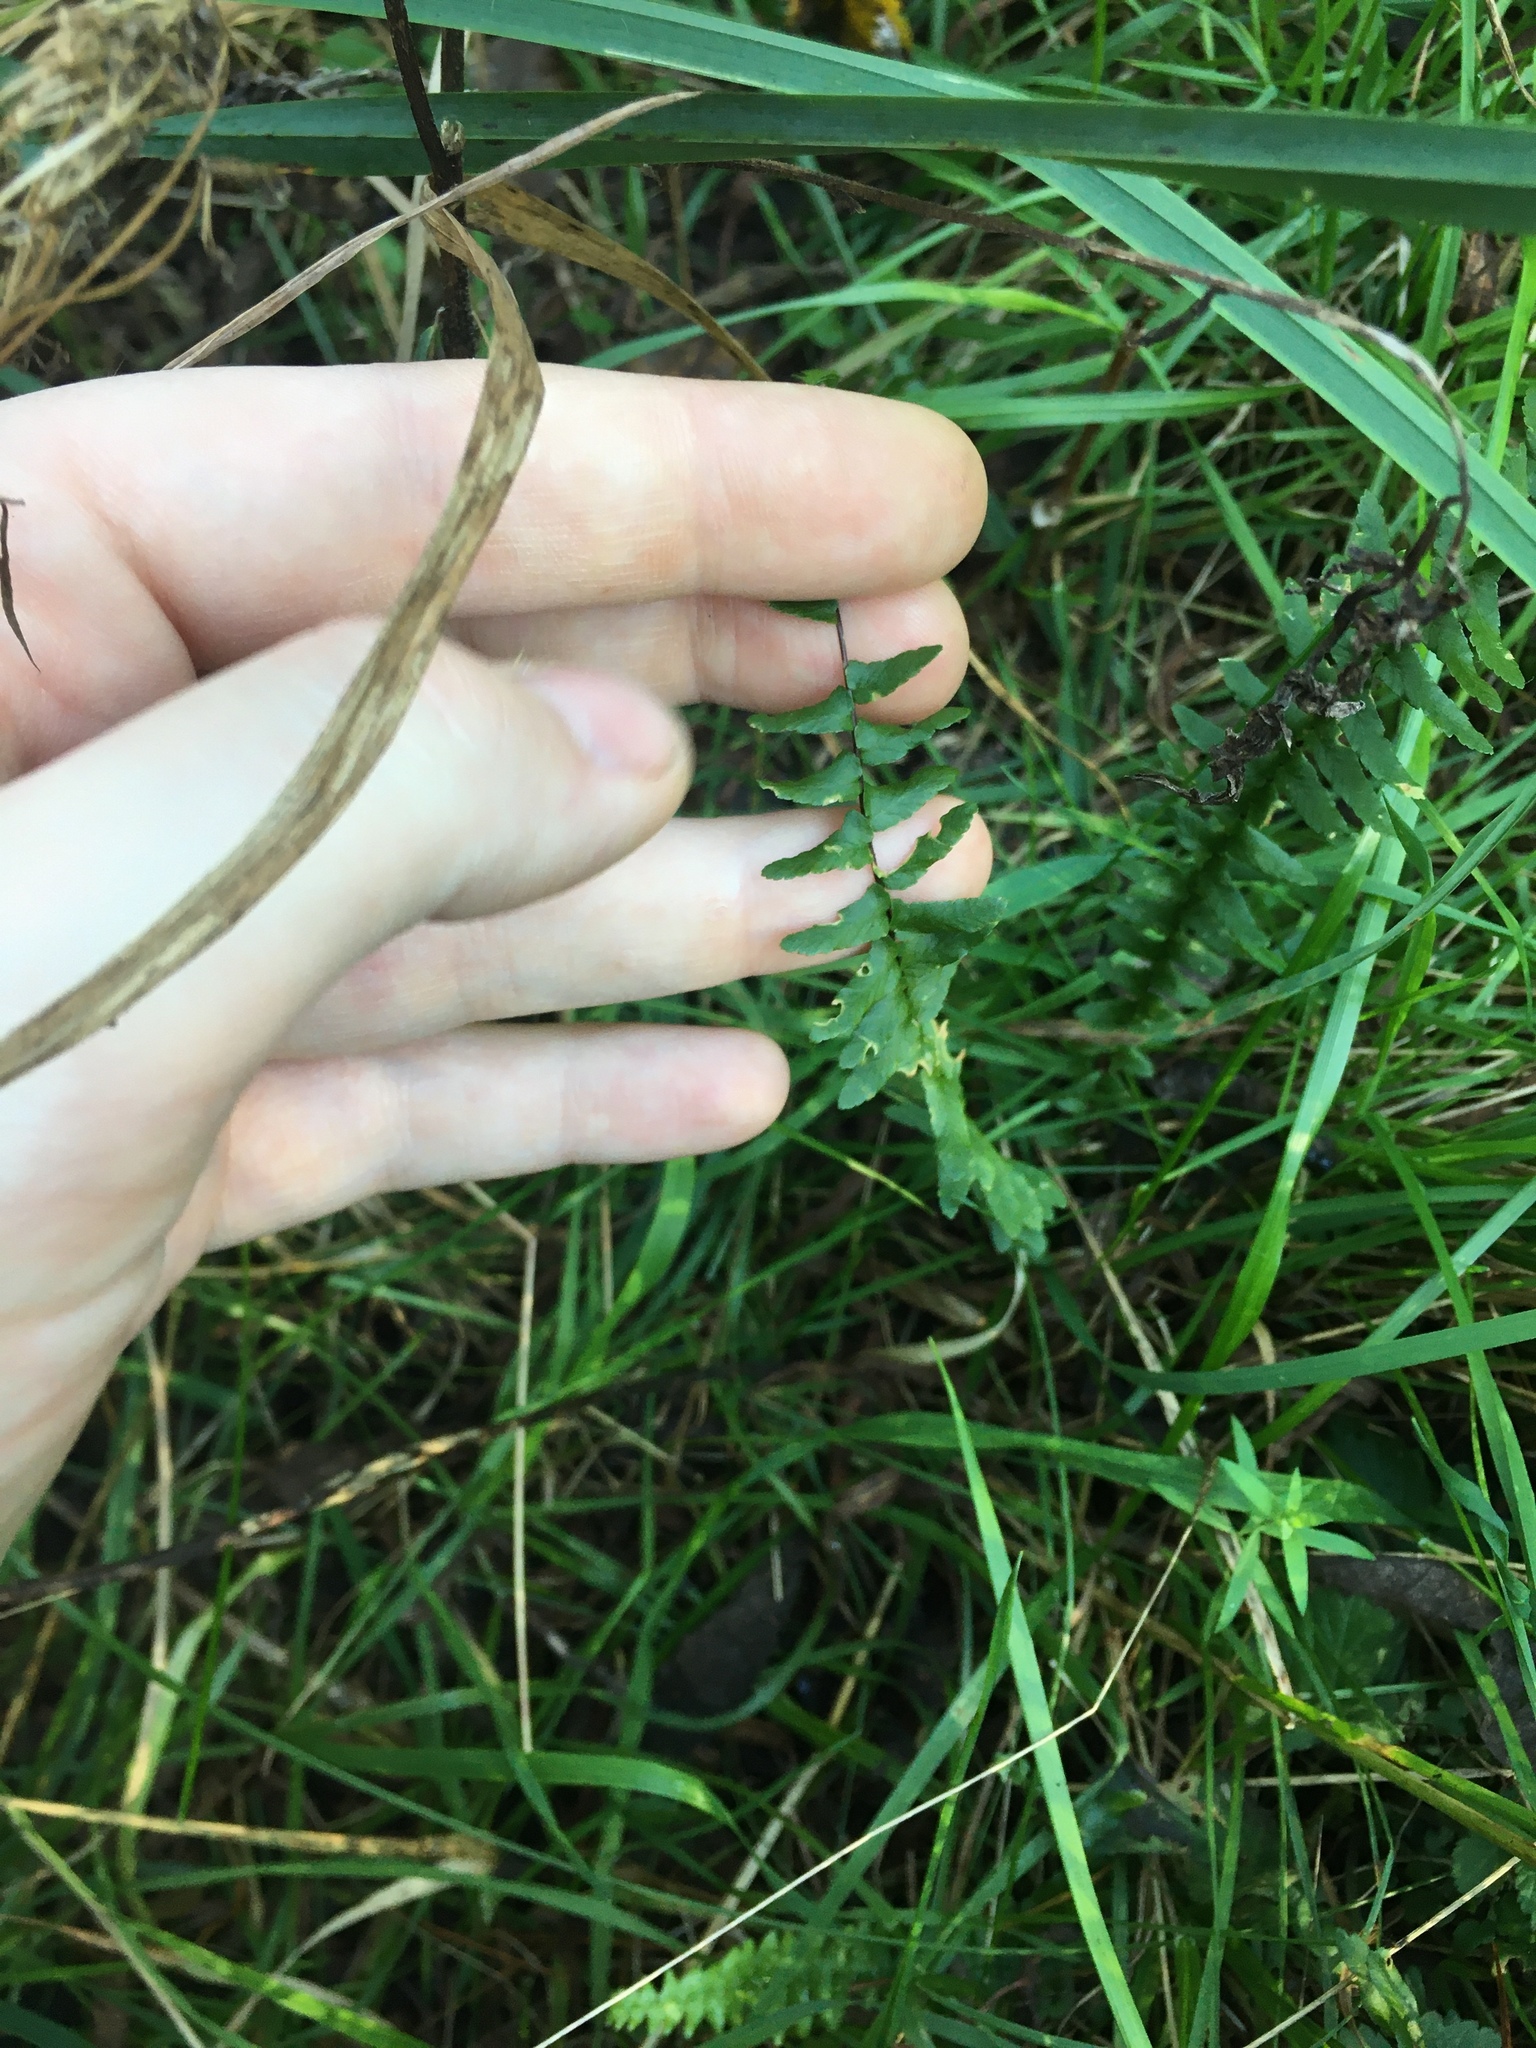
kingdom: Plantae
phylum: Tracheophyta
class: Polypodiopsida
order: Polypodiales
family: Aspleniaceae
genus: Asplenium
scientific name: Asplenium platyneuron
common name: Ebony spleenwort
